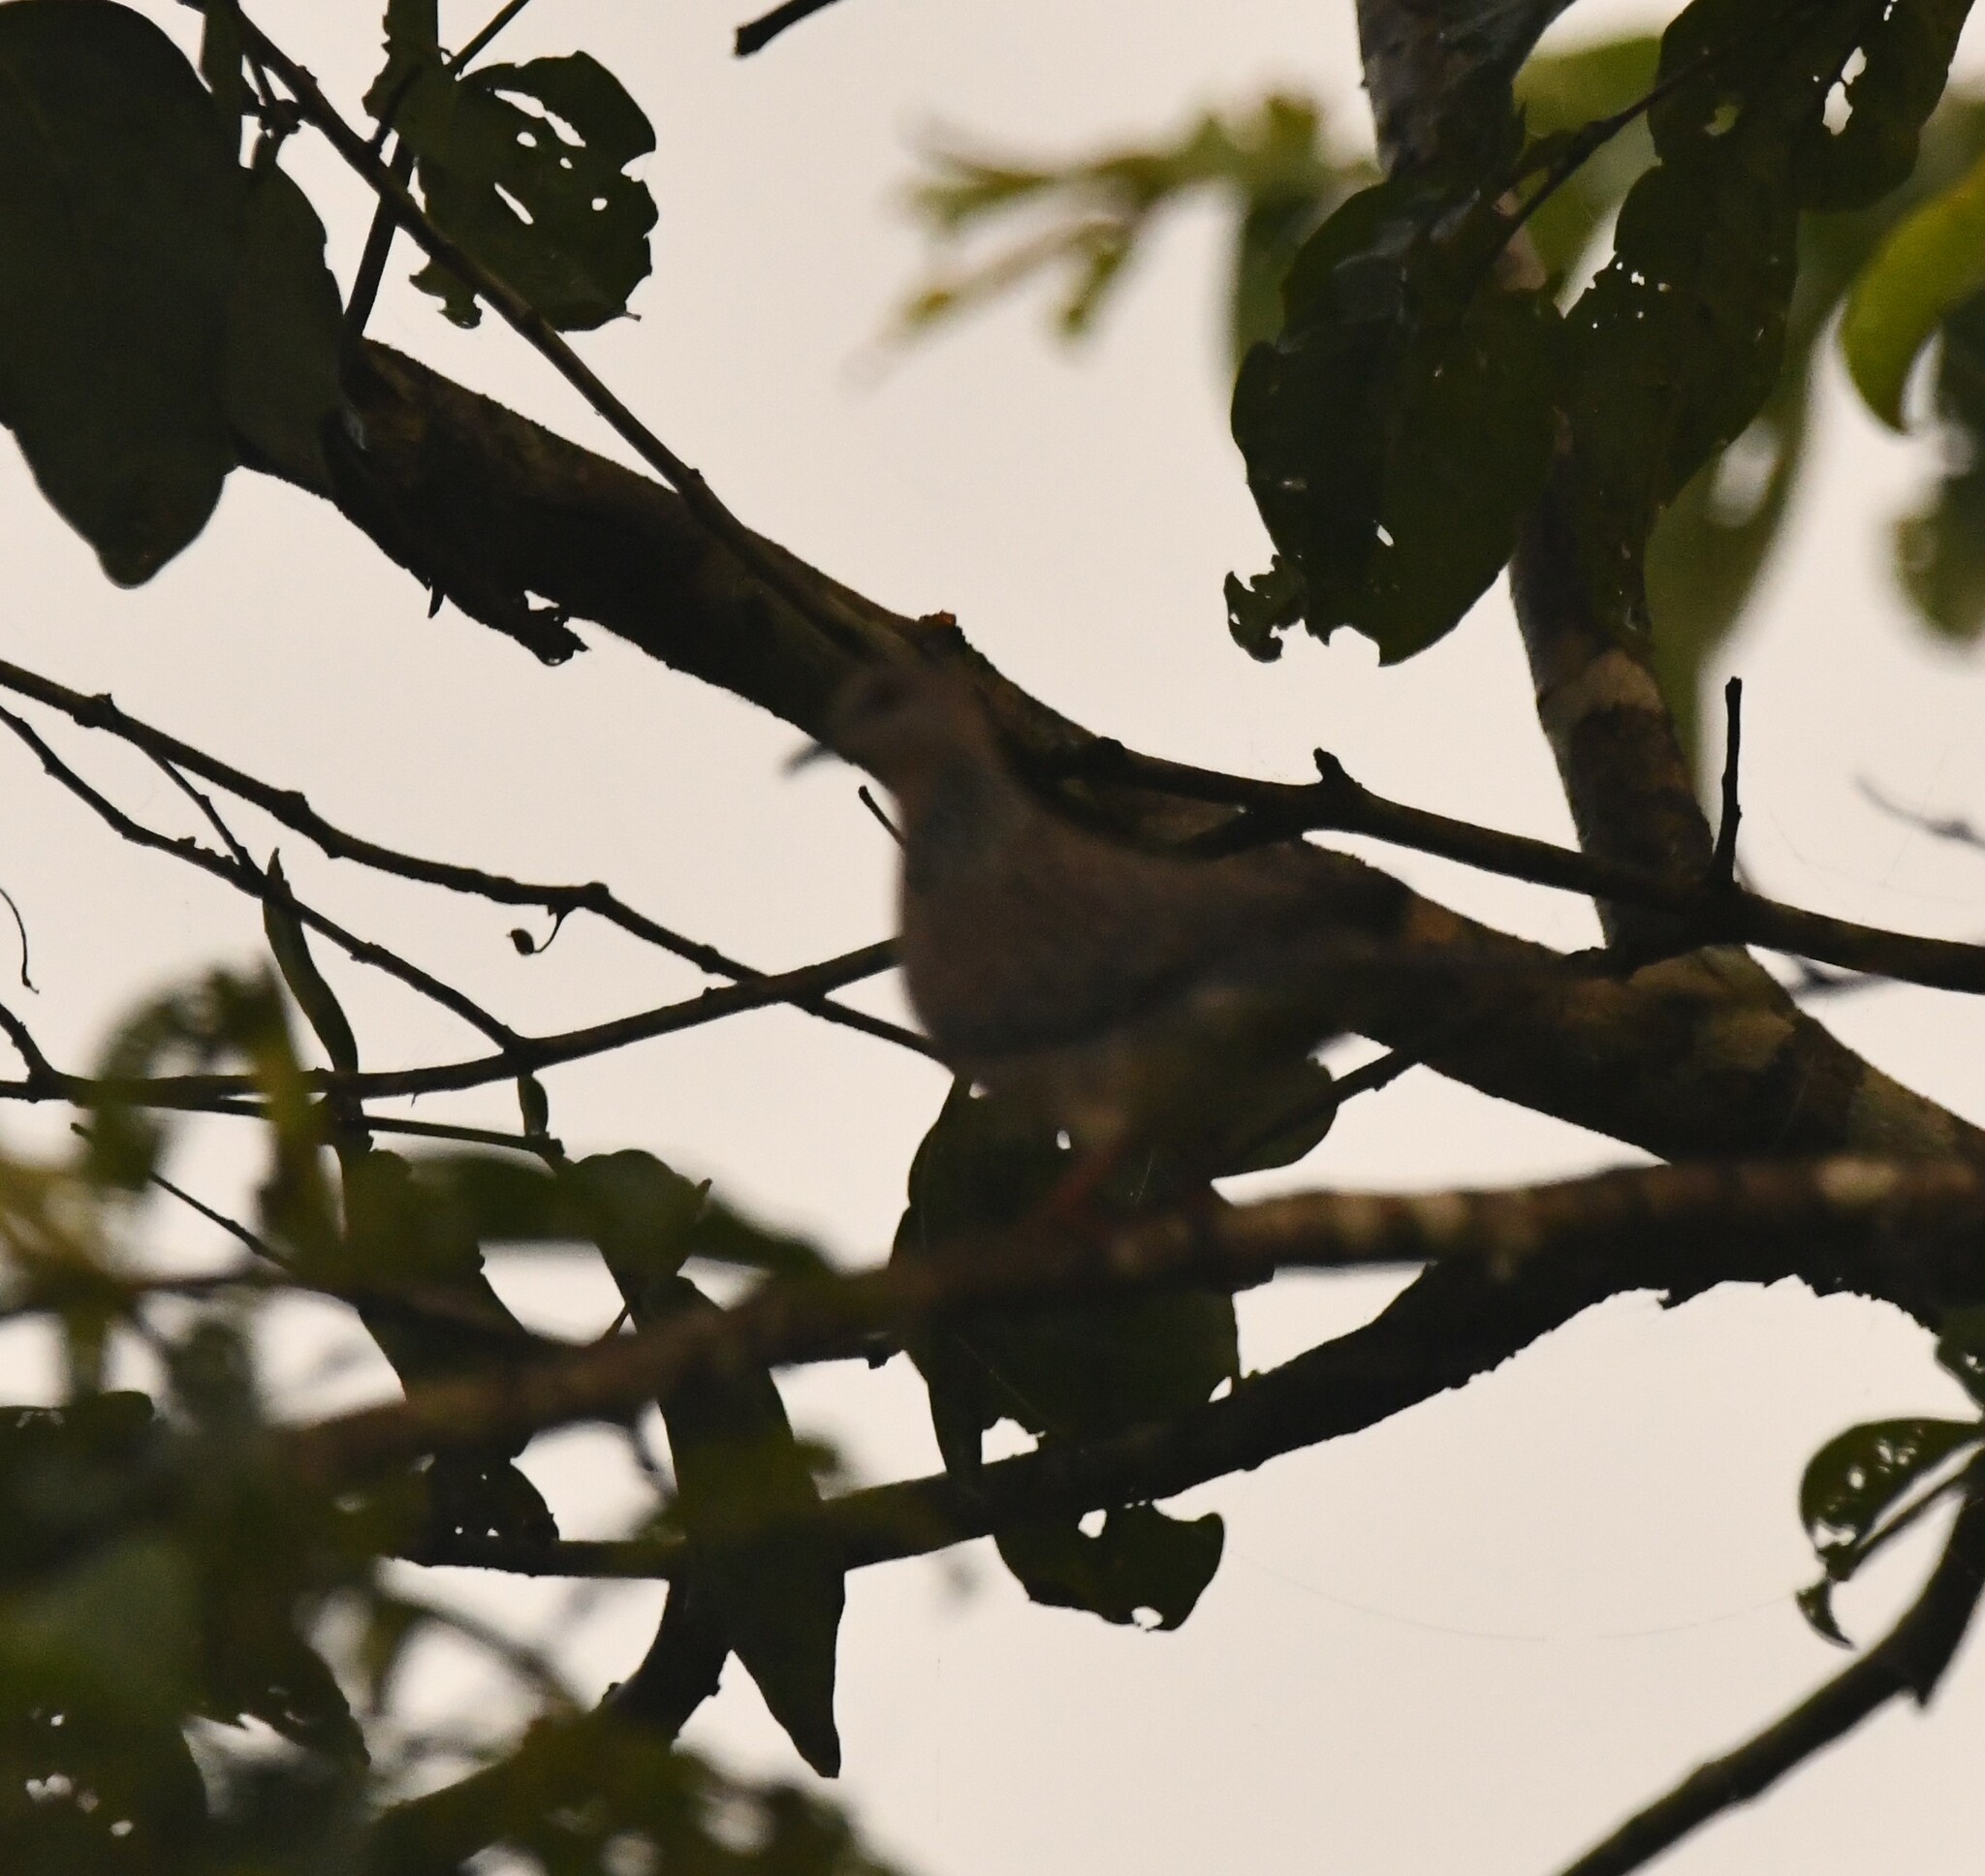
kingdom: Animalia
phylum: Chordata
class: Aves
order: Columbiformes
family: Columbidae
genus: Spilopelia
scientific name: Spilopelia chinensis
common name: Spotted dove
